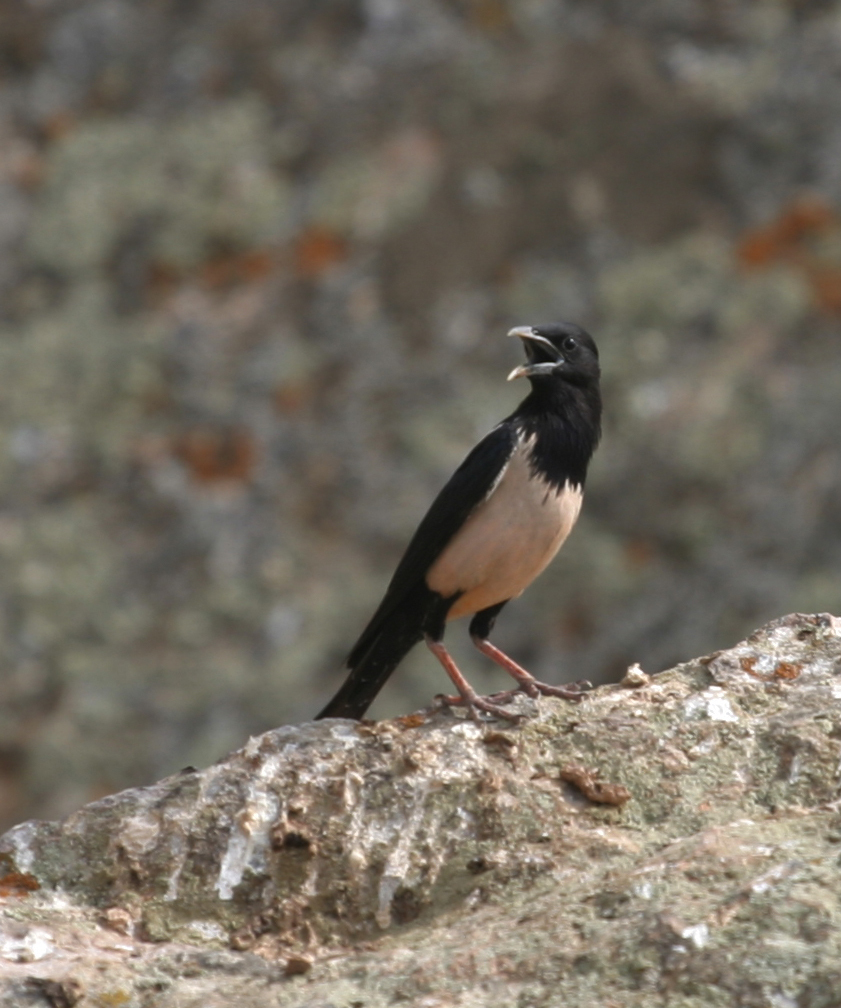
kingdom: Animalia
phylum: Chordata
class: Aves
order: Passeriformes
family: Sturnidae
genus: Pastor
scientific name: Pastor roseus
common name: Rosy starling
